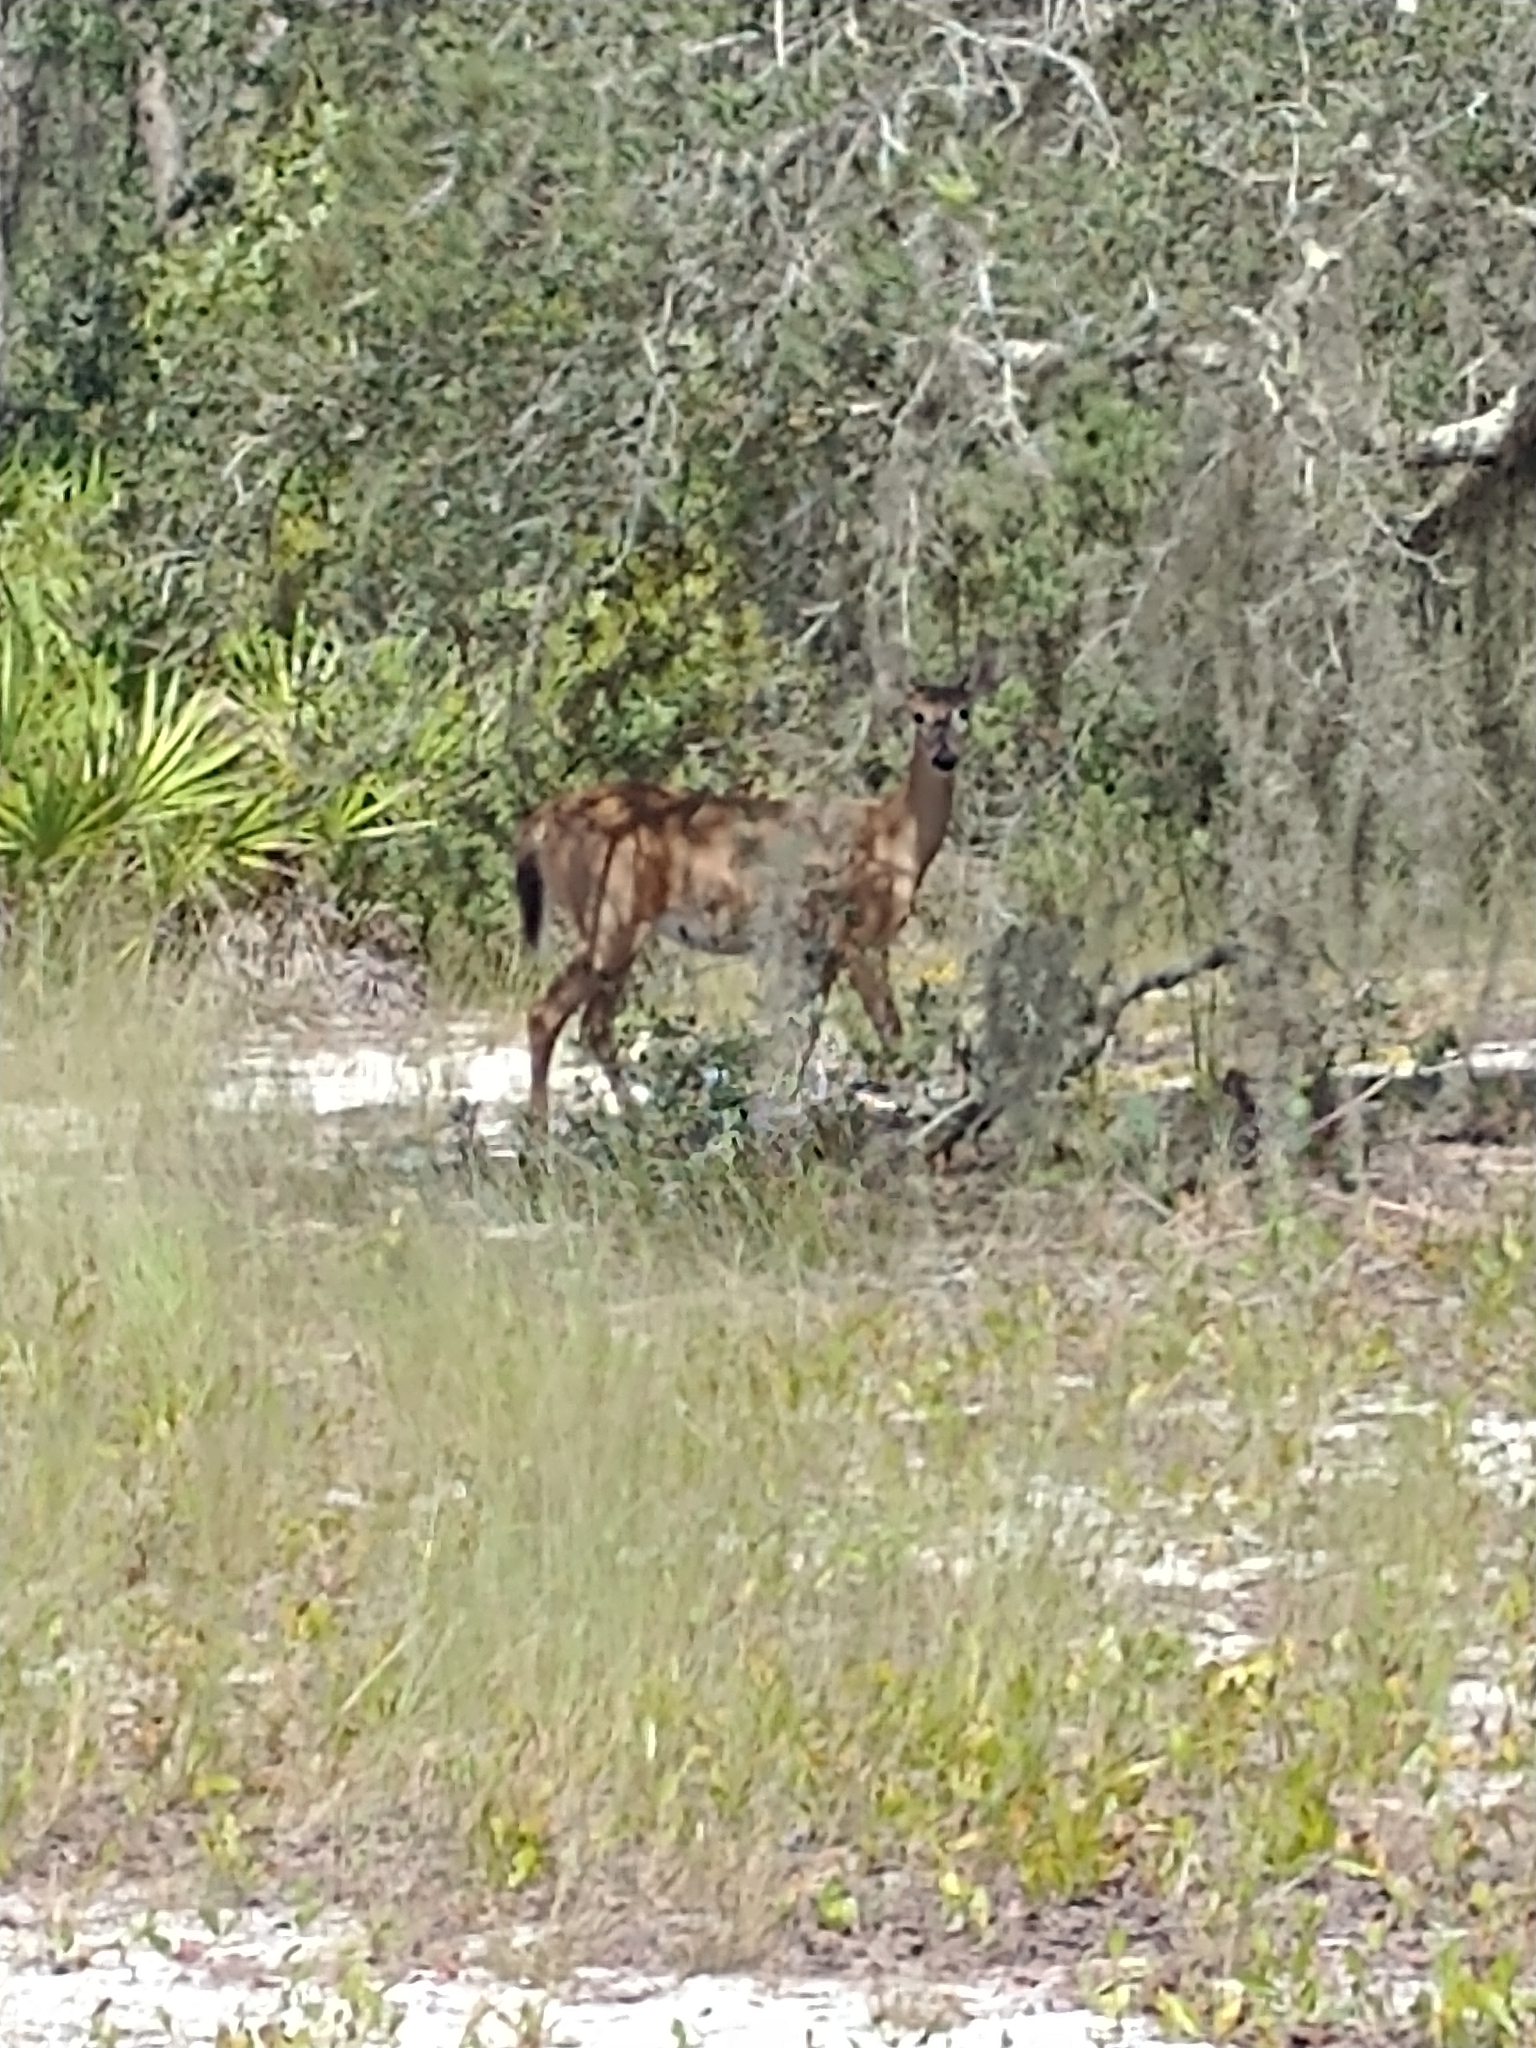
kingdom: Animalia
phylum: Chordata
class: Mammalia
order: Artiodactyla
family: Cervidae
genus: Odocoileus
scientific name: Odocoileus virginianus
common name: White-tailed deer
